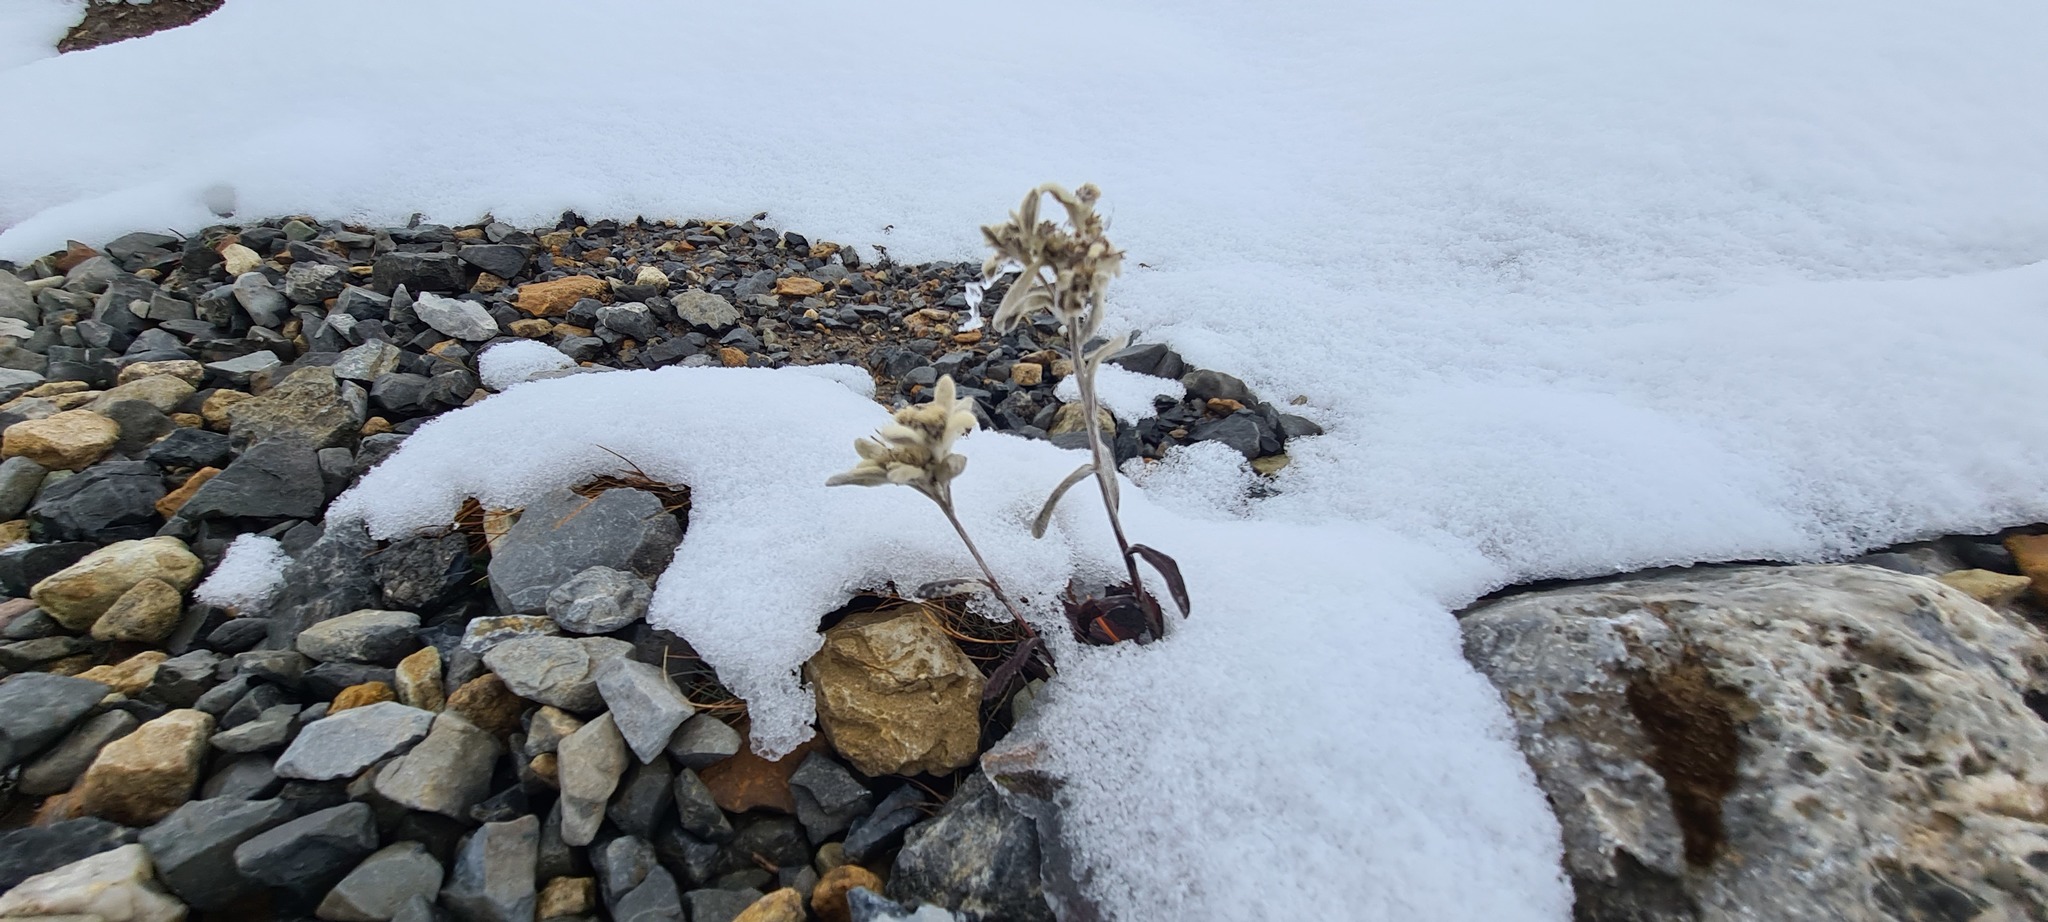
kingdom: Plantae
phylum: Tracheophyta
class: Magnoliopsida
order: Asterales
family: Asteraceae
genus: Leontopodium
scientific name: Leontopodium nivale
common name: Edelweiss
